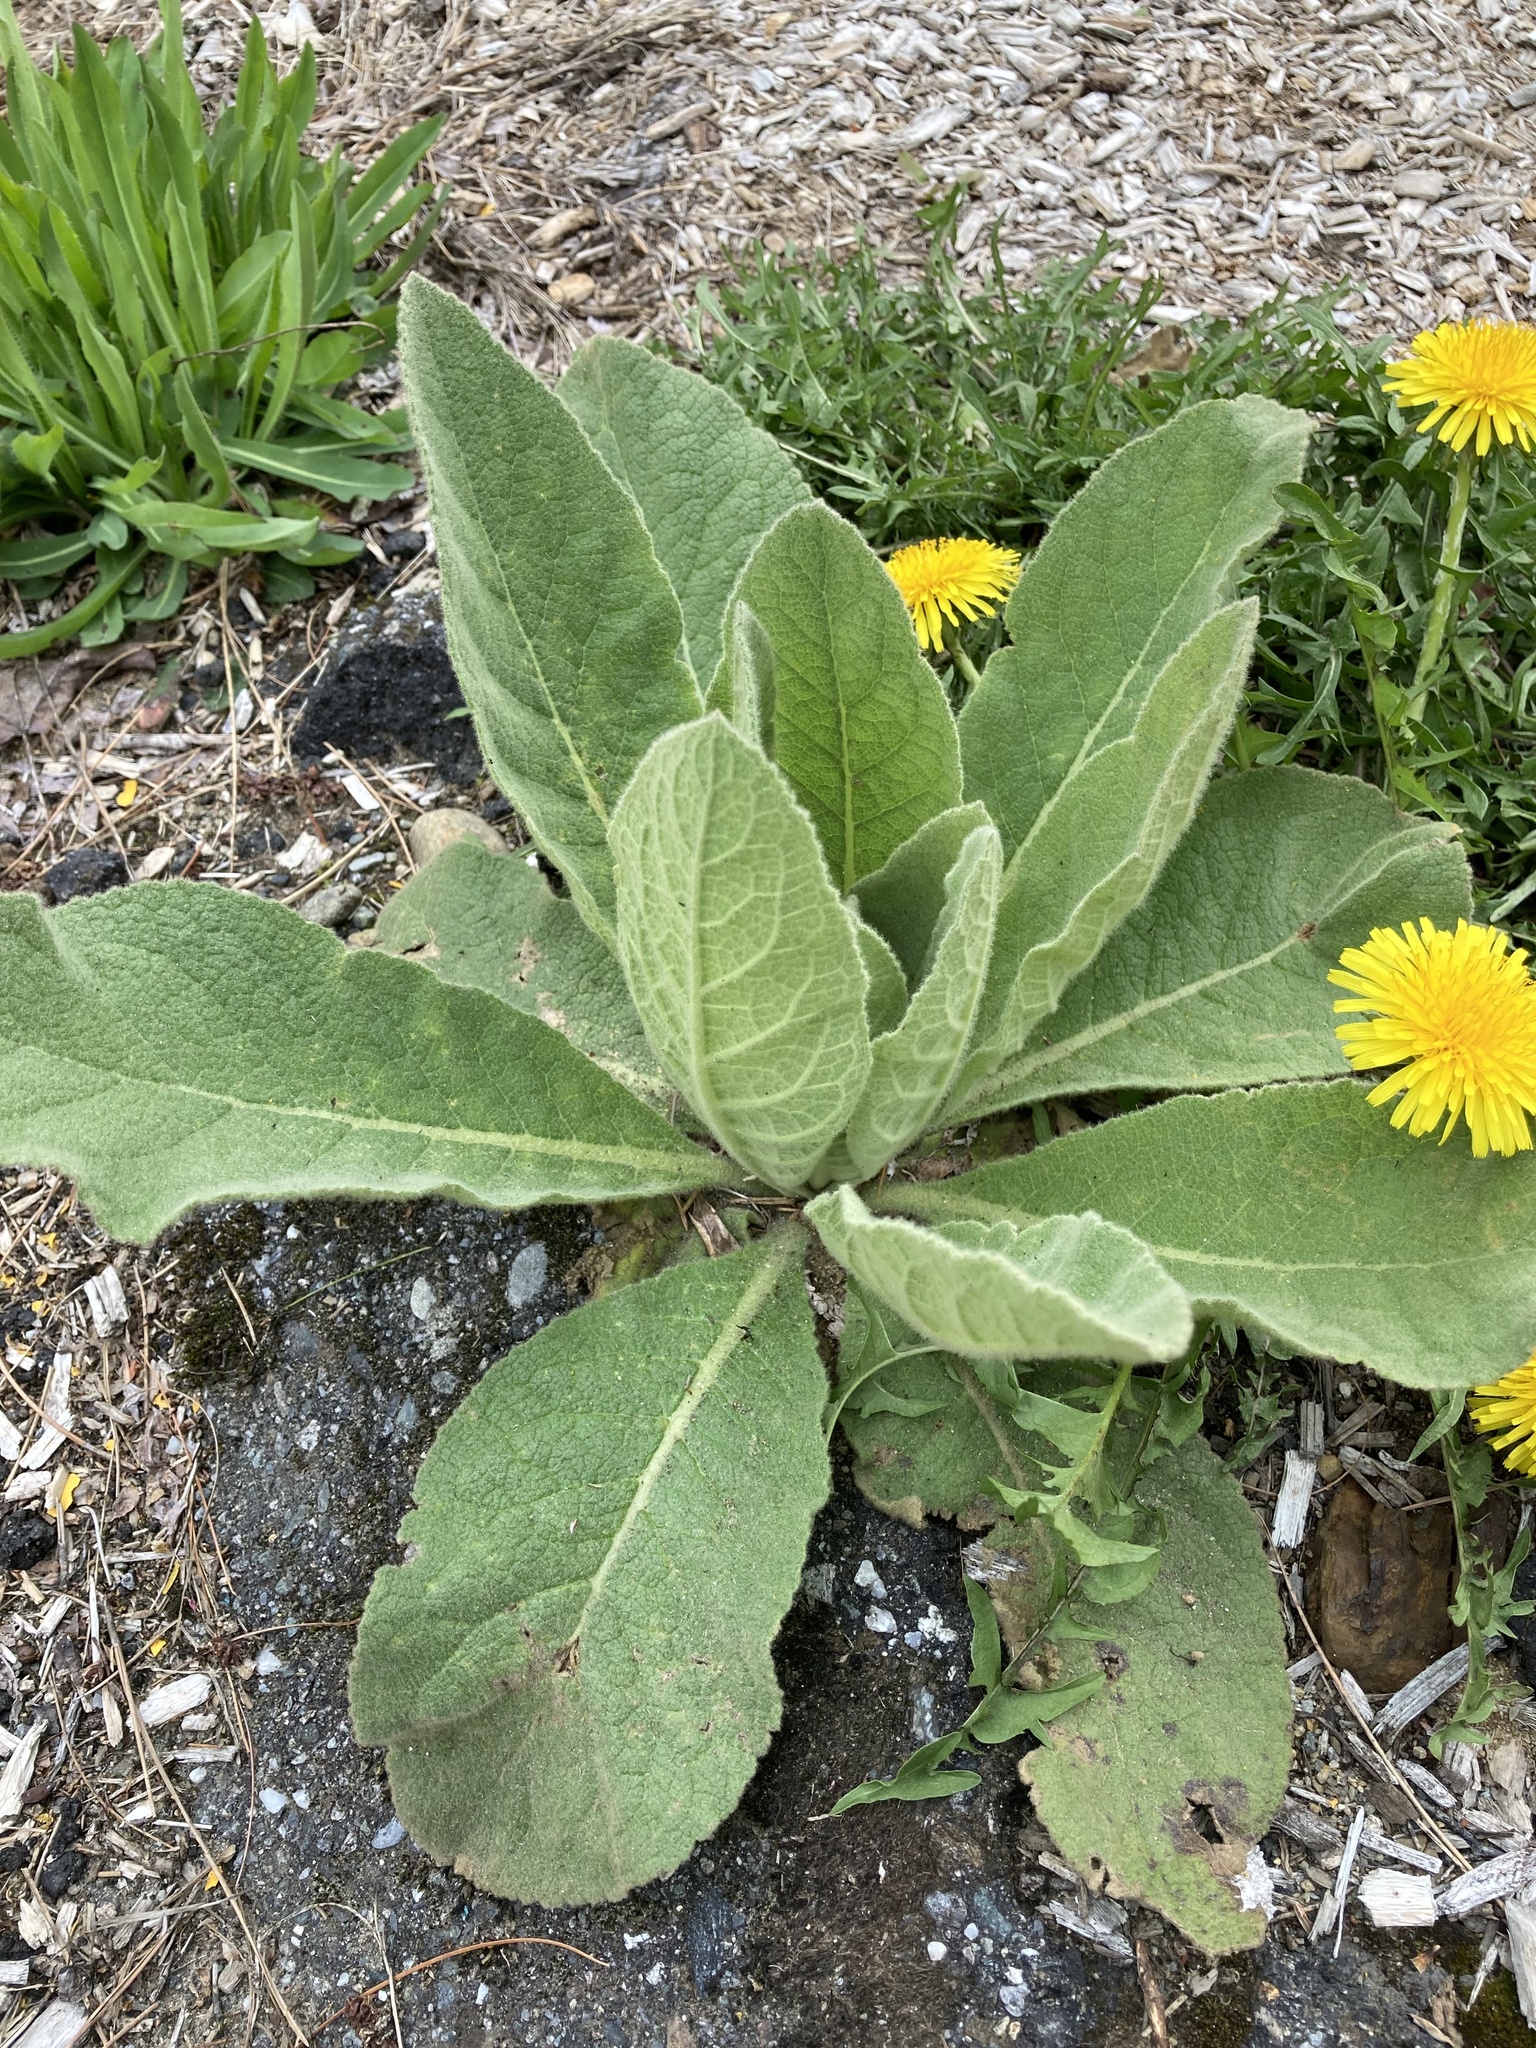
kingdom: Plantae
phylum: Tracheophyta
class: Magnoliopsida
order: Lamiales
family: Scrophulariaceae
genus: Verbascum
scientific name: Verbascum thapsus
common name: Common mullein
